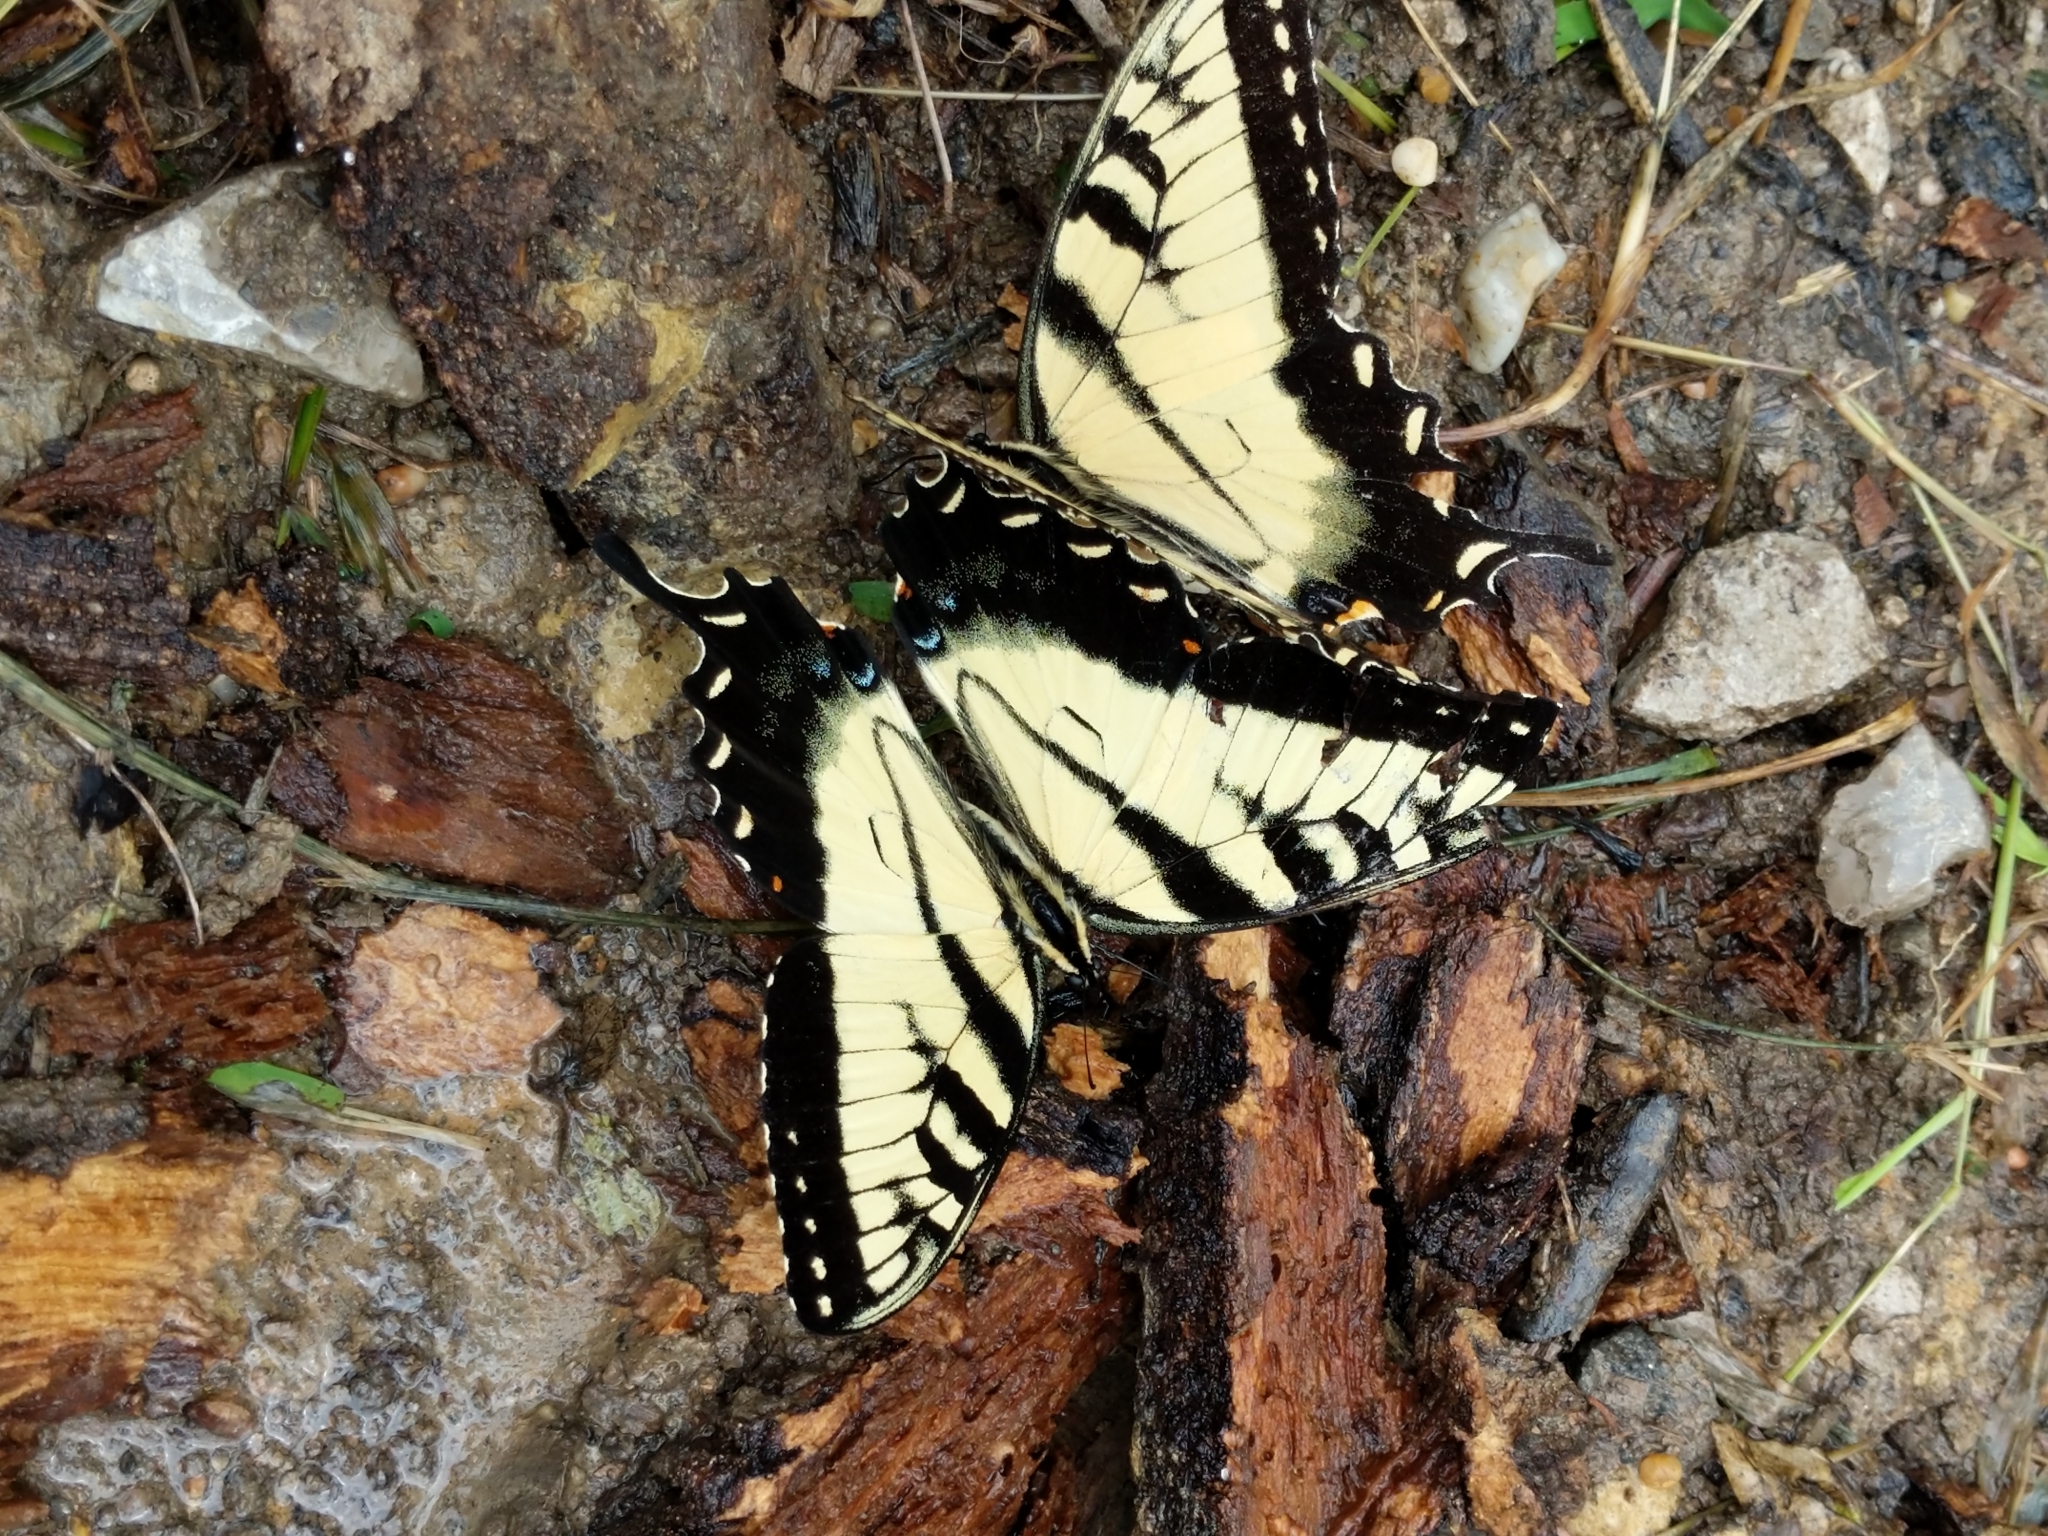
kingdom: Animalia
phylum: Arthropoda
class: Insecta
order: Lepidoptera
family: Papilionidae
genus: Papilio
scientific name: Papilio glaucus
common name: Tiger swallowtail
